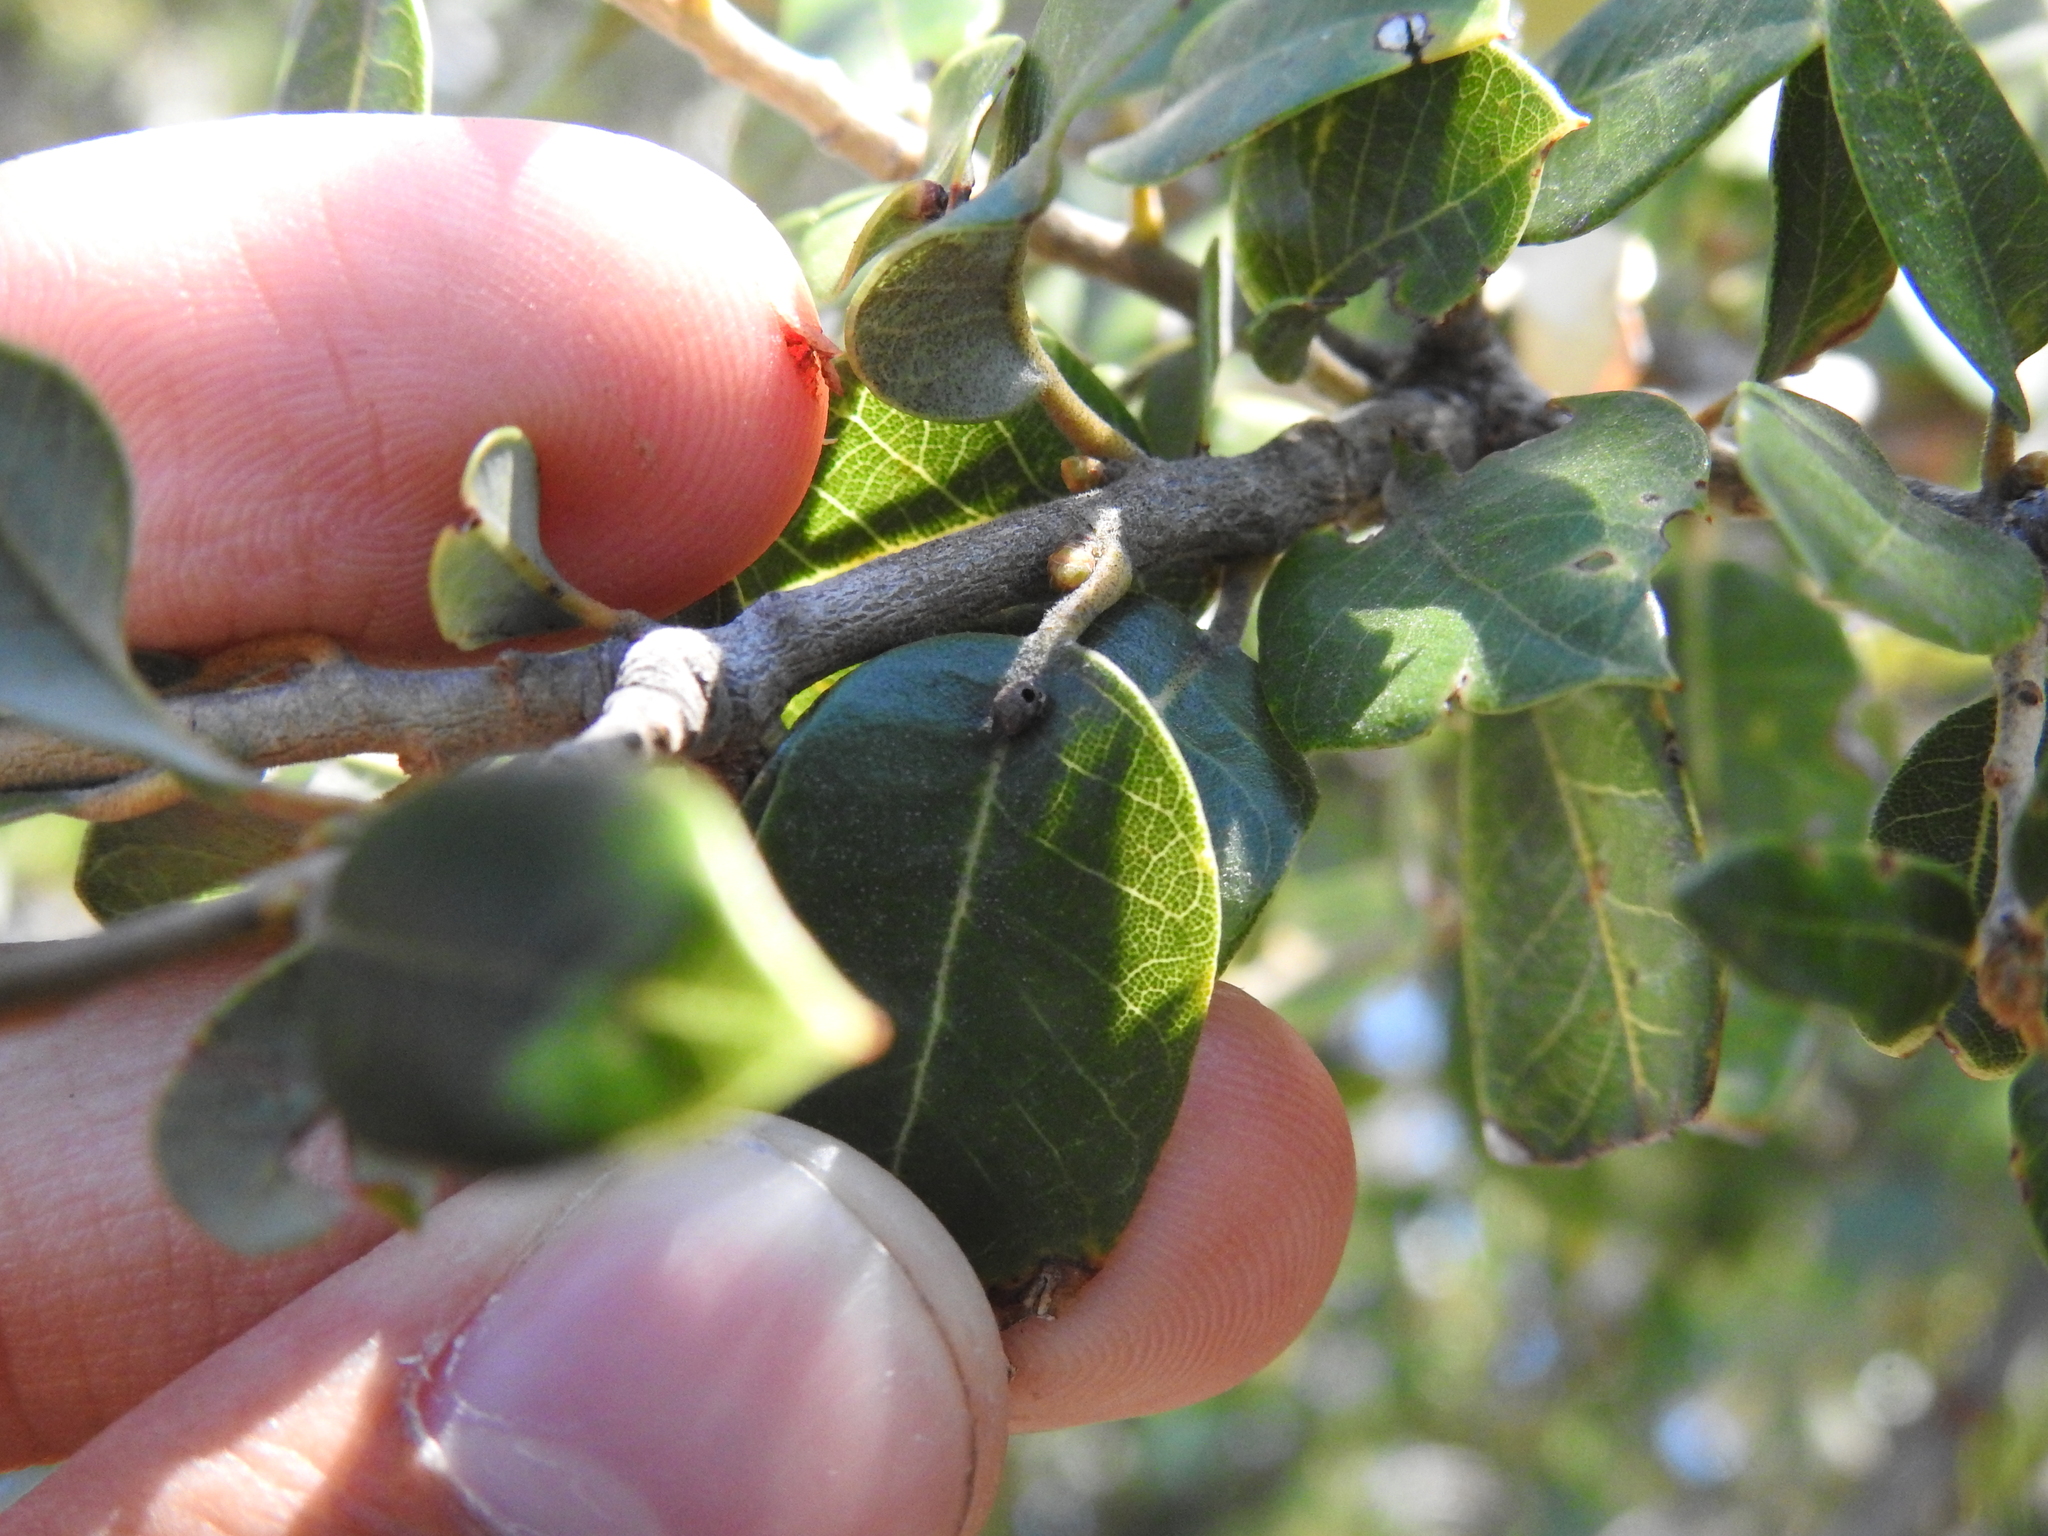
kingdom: Animalia
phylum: Arthropoda
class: Insecta
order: Hymenoptera
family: Cynipidae
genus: Andricus
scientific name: Andricus
